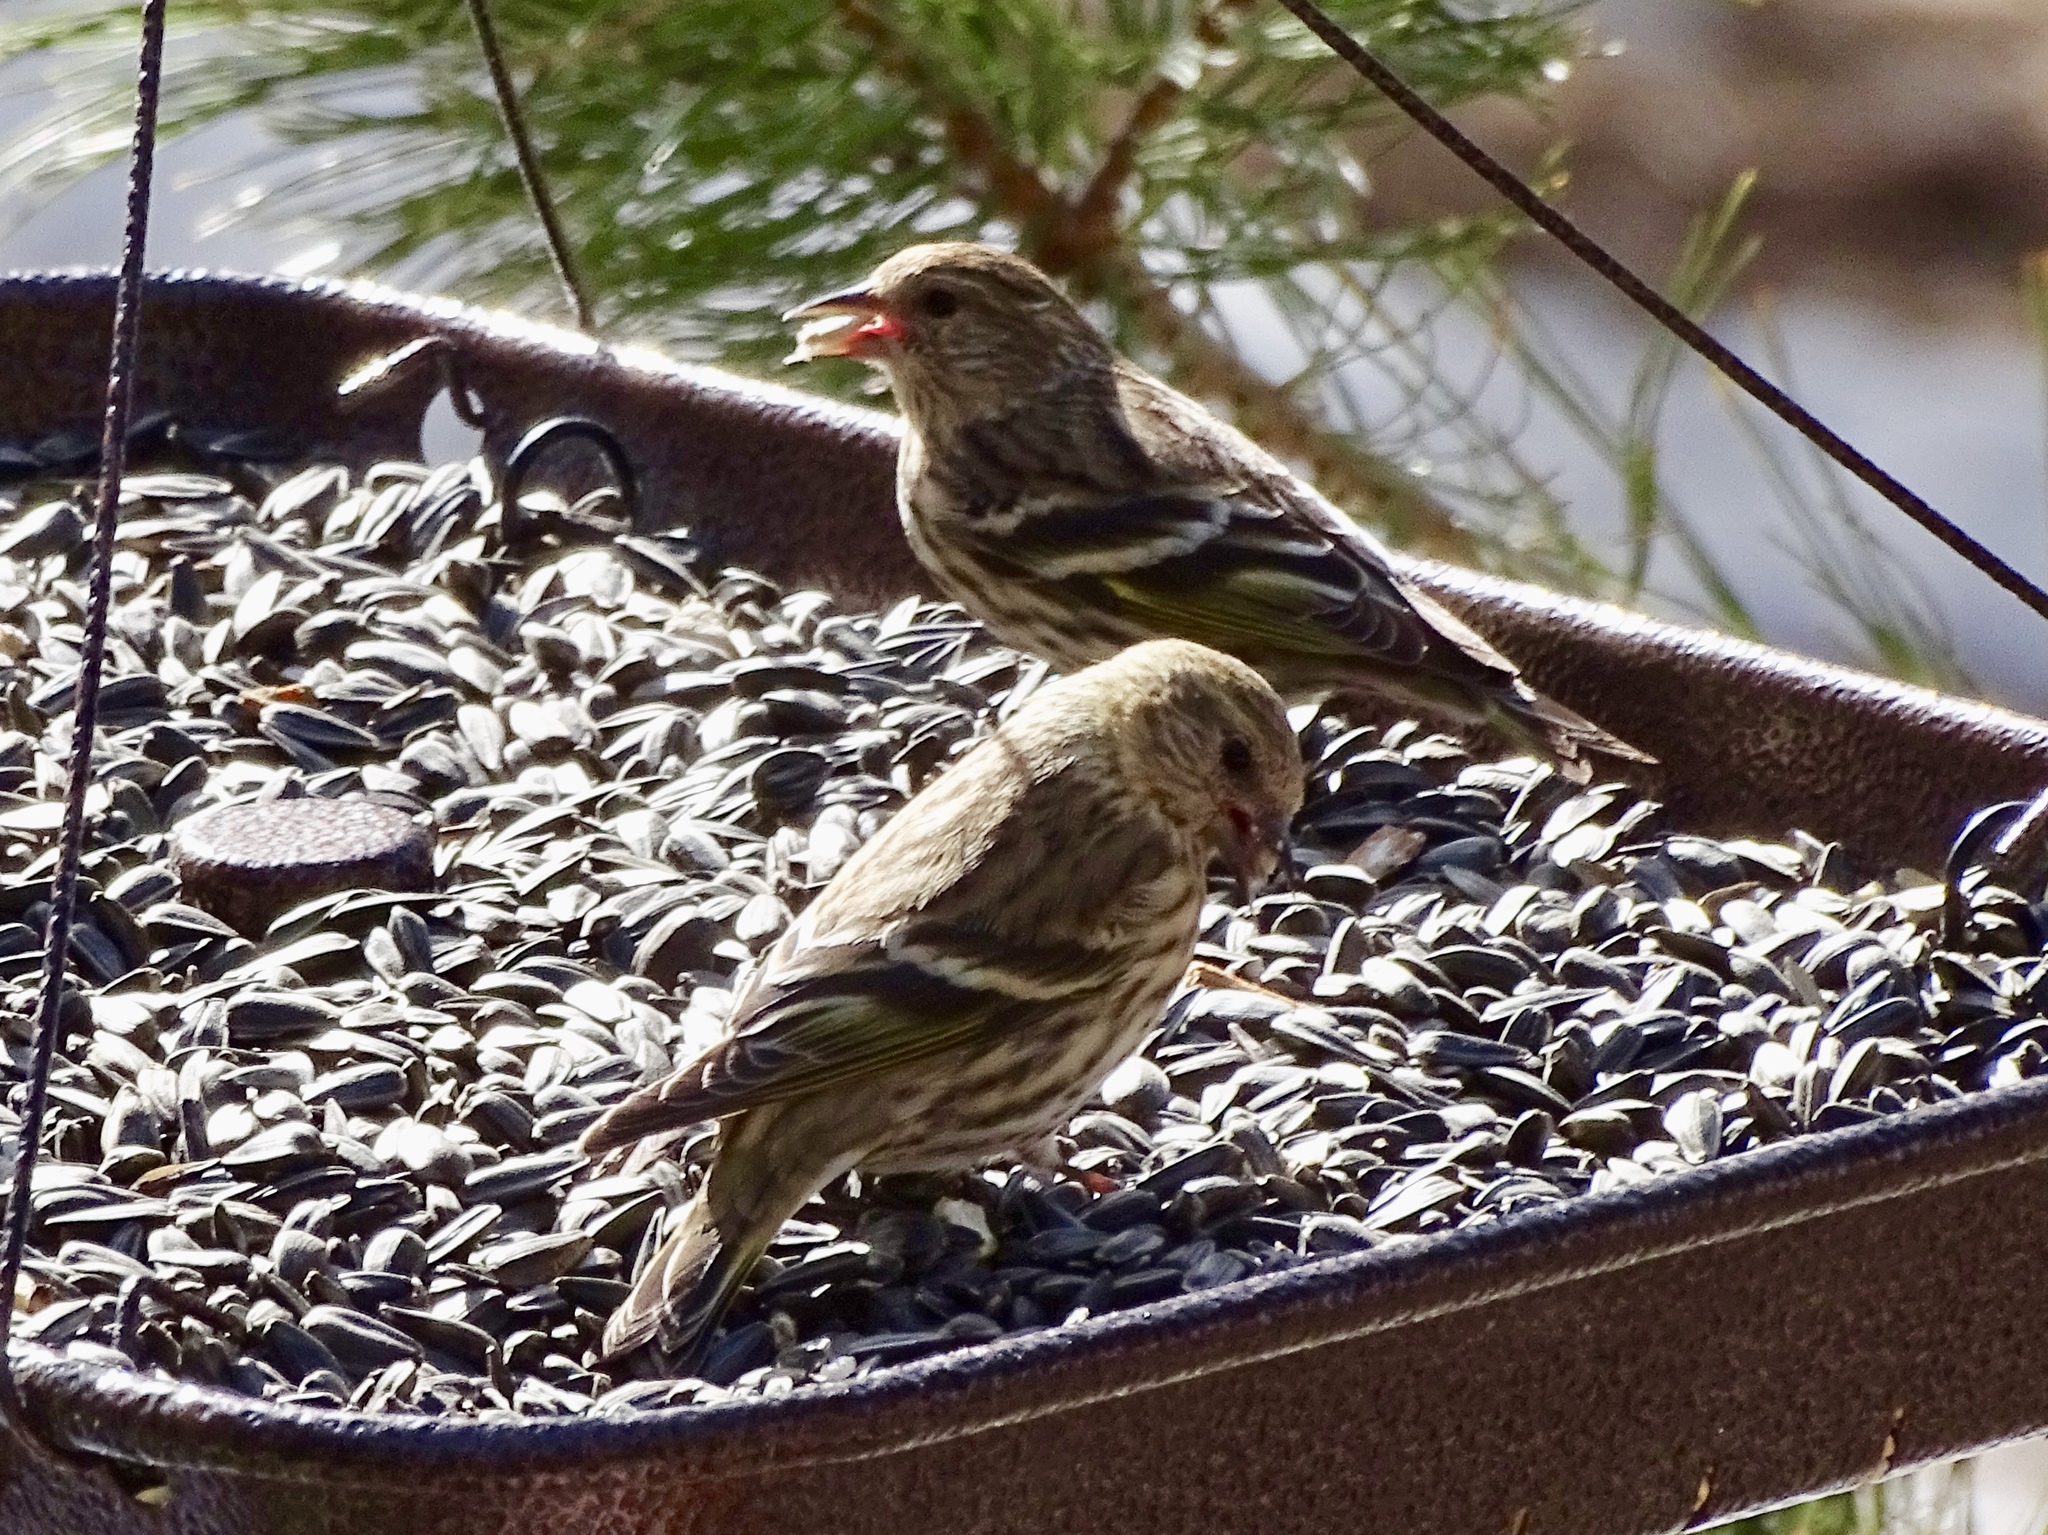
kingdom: Animalia
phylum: Chordata
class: Aves
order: Passeriformes
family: Fringillidae
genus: Spinus
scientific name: Spinus pinus
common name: Pine siskin
